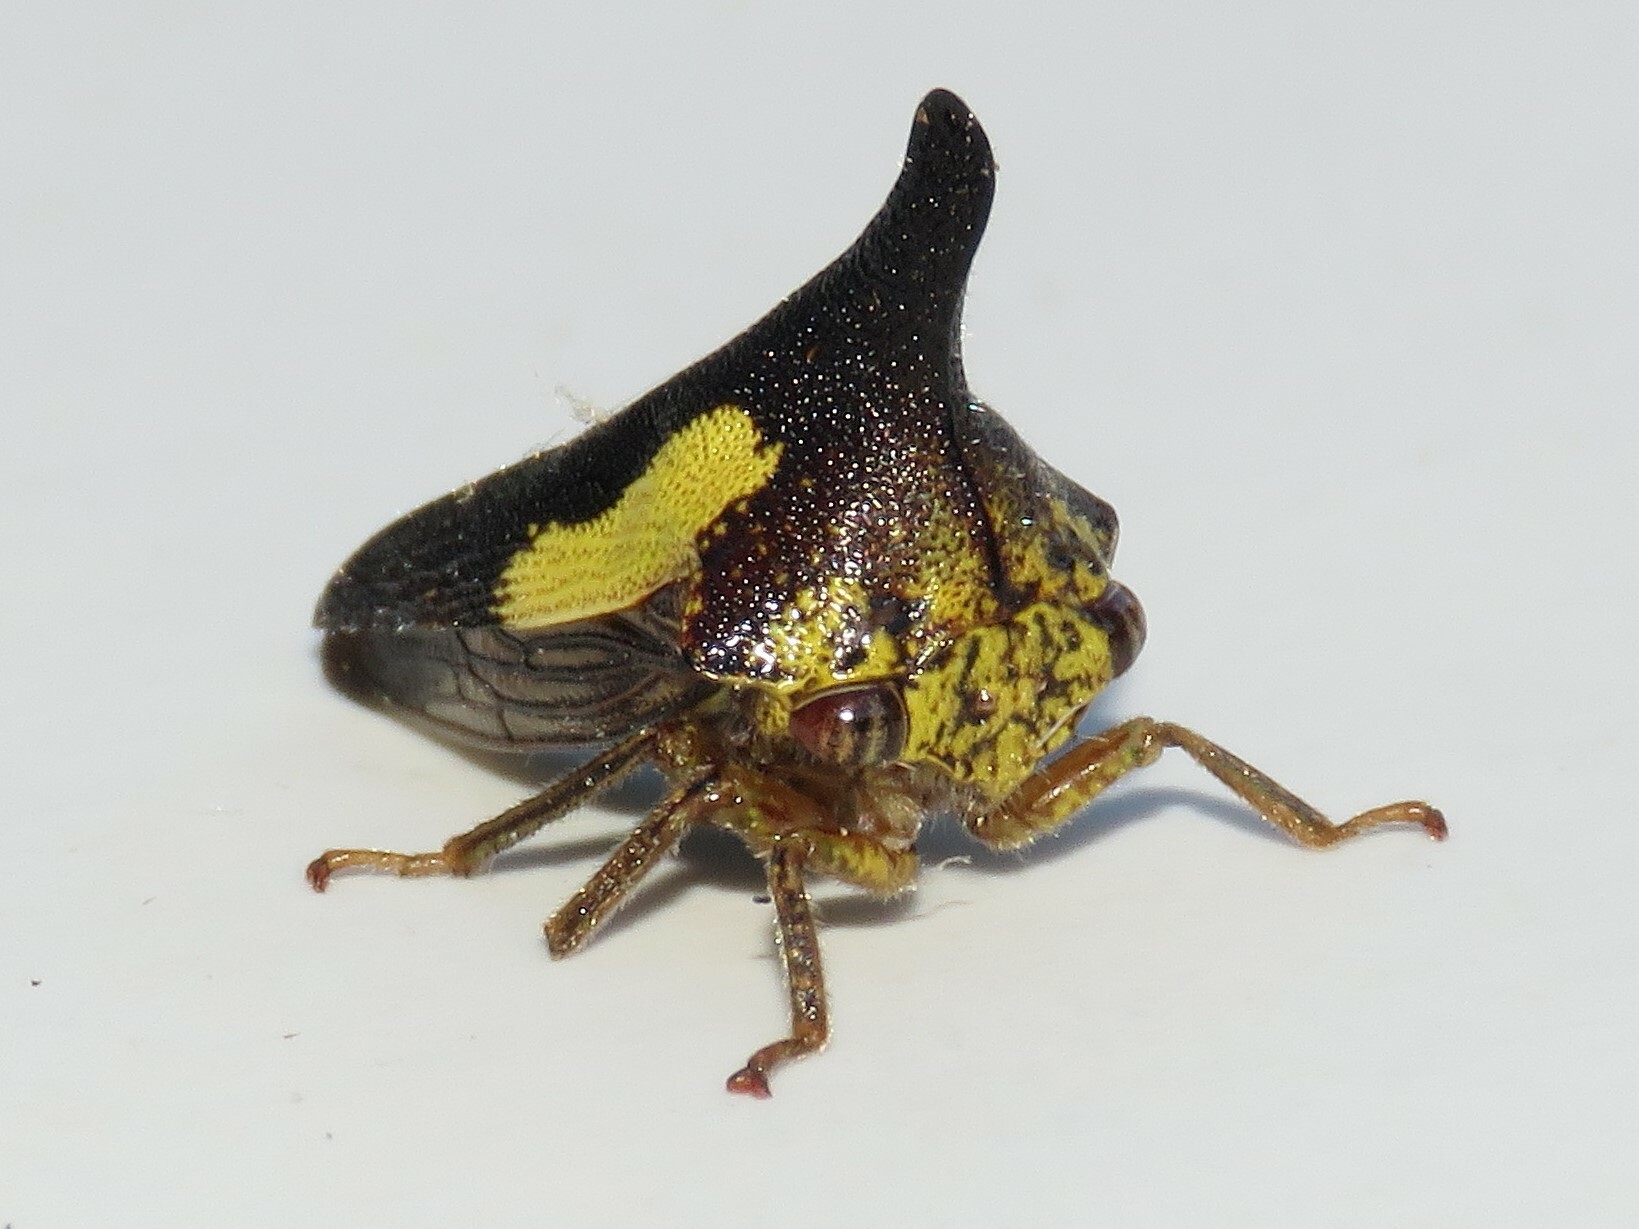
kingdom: Animalia
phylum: Arthropoda
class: Insecta
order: Hemiptera
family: Membracidae
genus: Thelia
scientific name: Thelia bimaculata
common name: Locust treehopper
